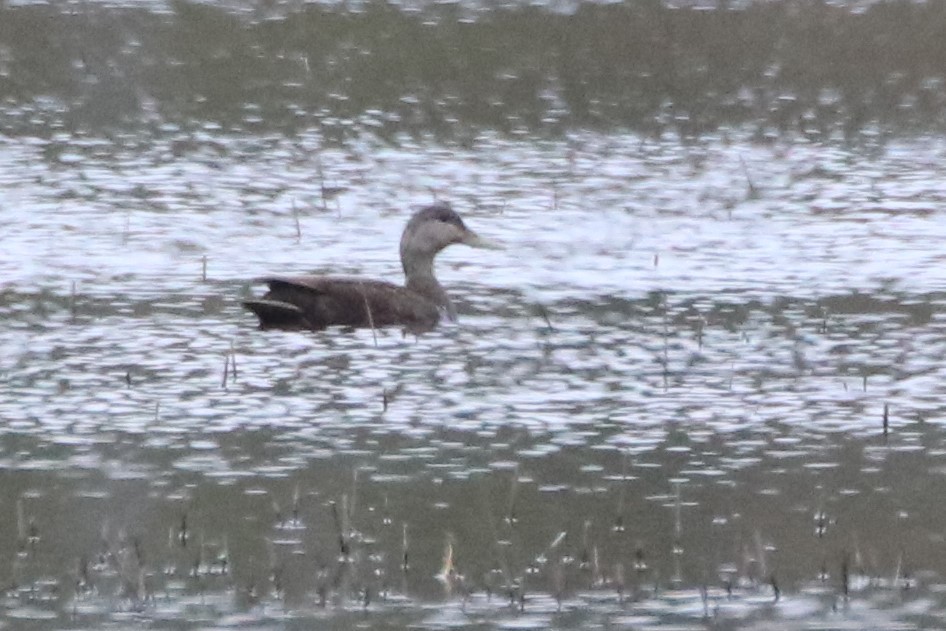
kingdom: Animalia
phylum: Chordata
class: Aves
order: Anseriformes
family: Anatidae
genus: Anas
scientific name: Anas rubripes
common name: American black duck
